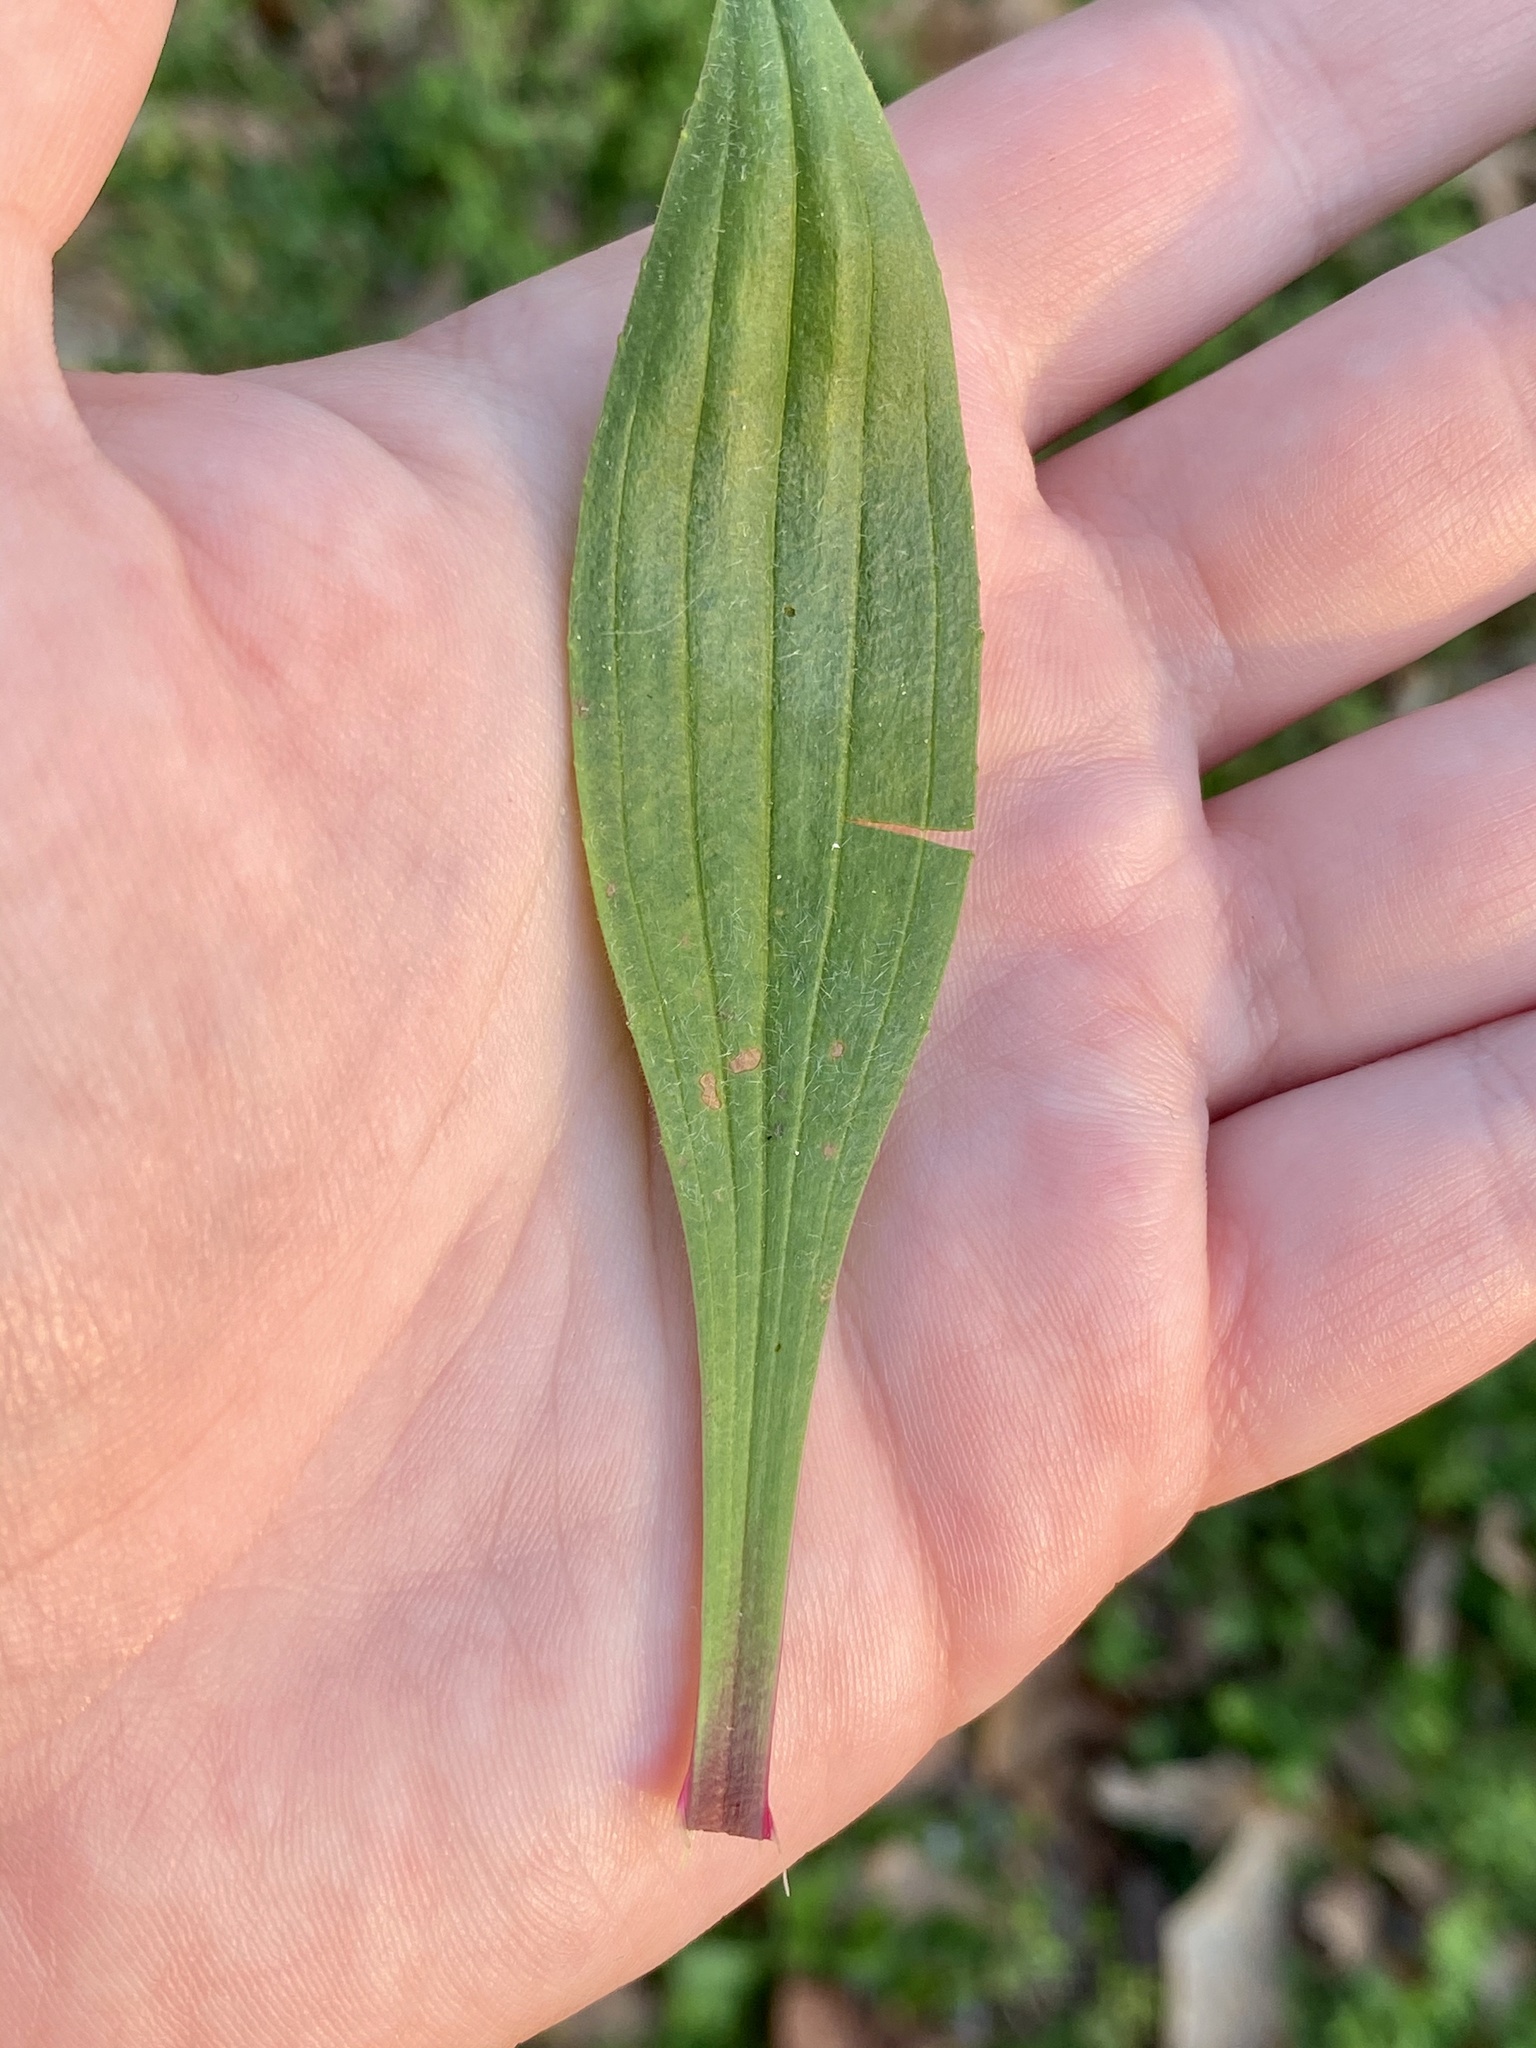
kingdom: Plantae
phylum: Tracheophyta
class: Magnoliopsida
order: Lamiales
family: Plantaginaceae
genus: Plantago
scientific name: Plantago lanceolata
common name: Ribwort plantain
